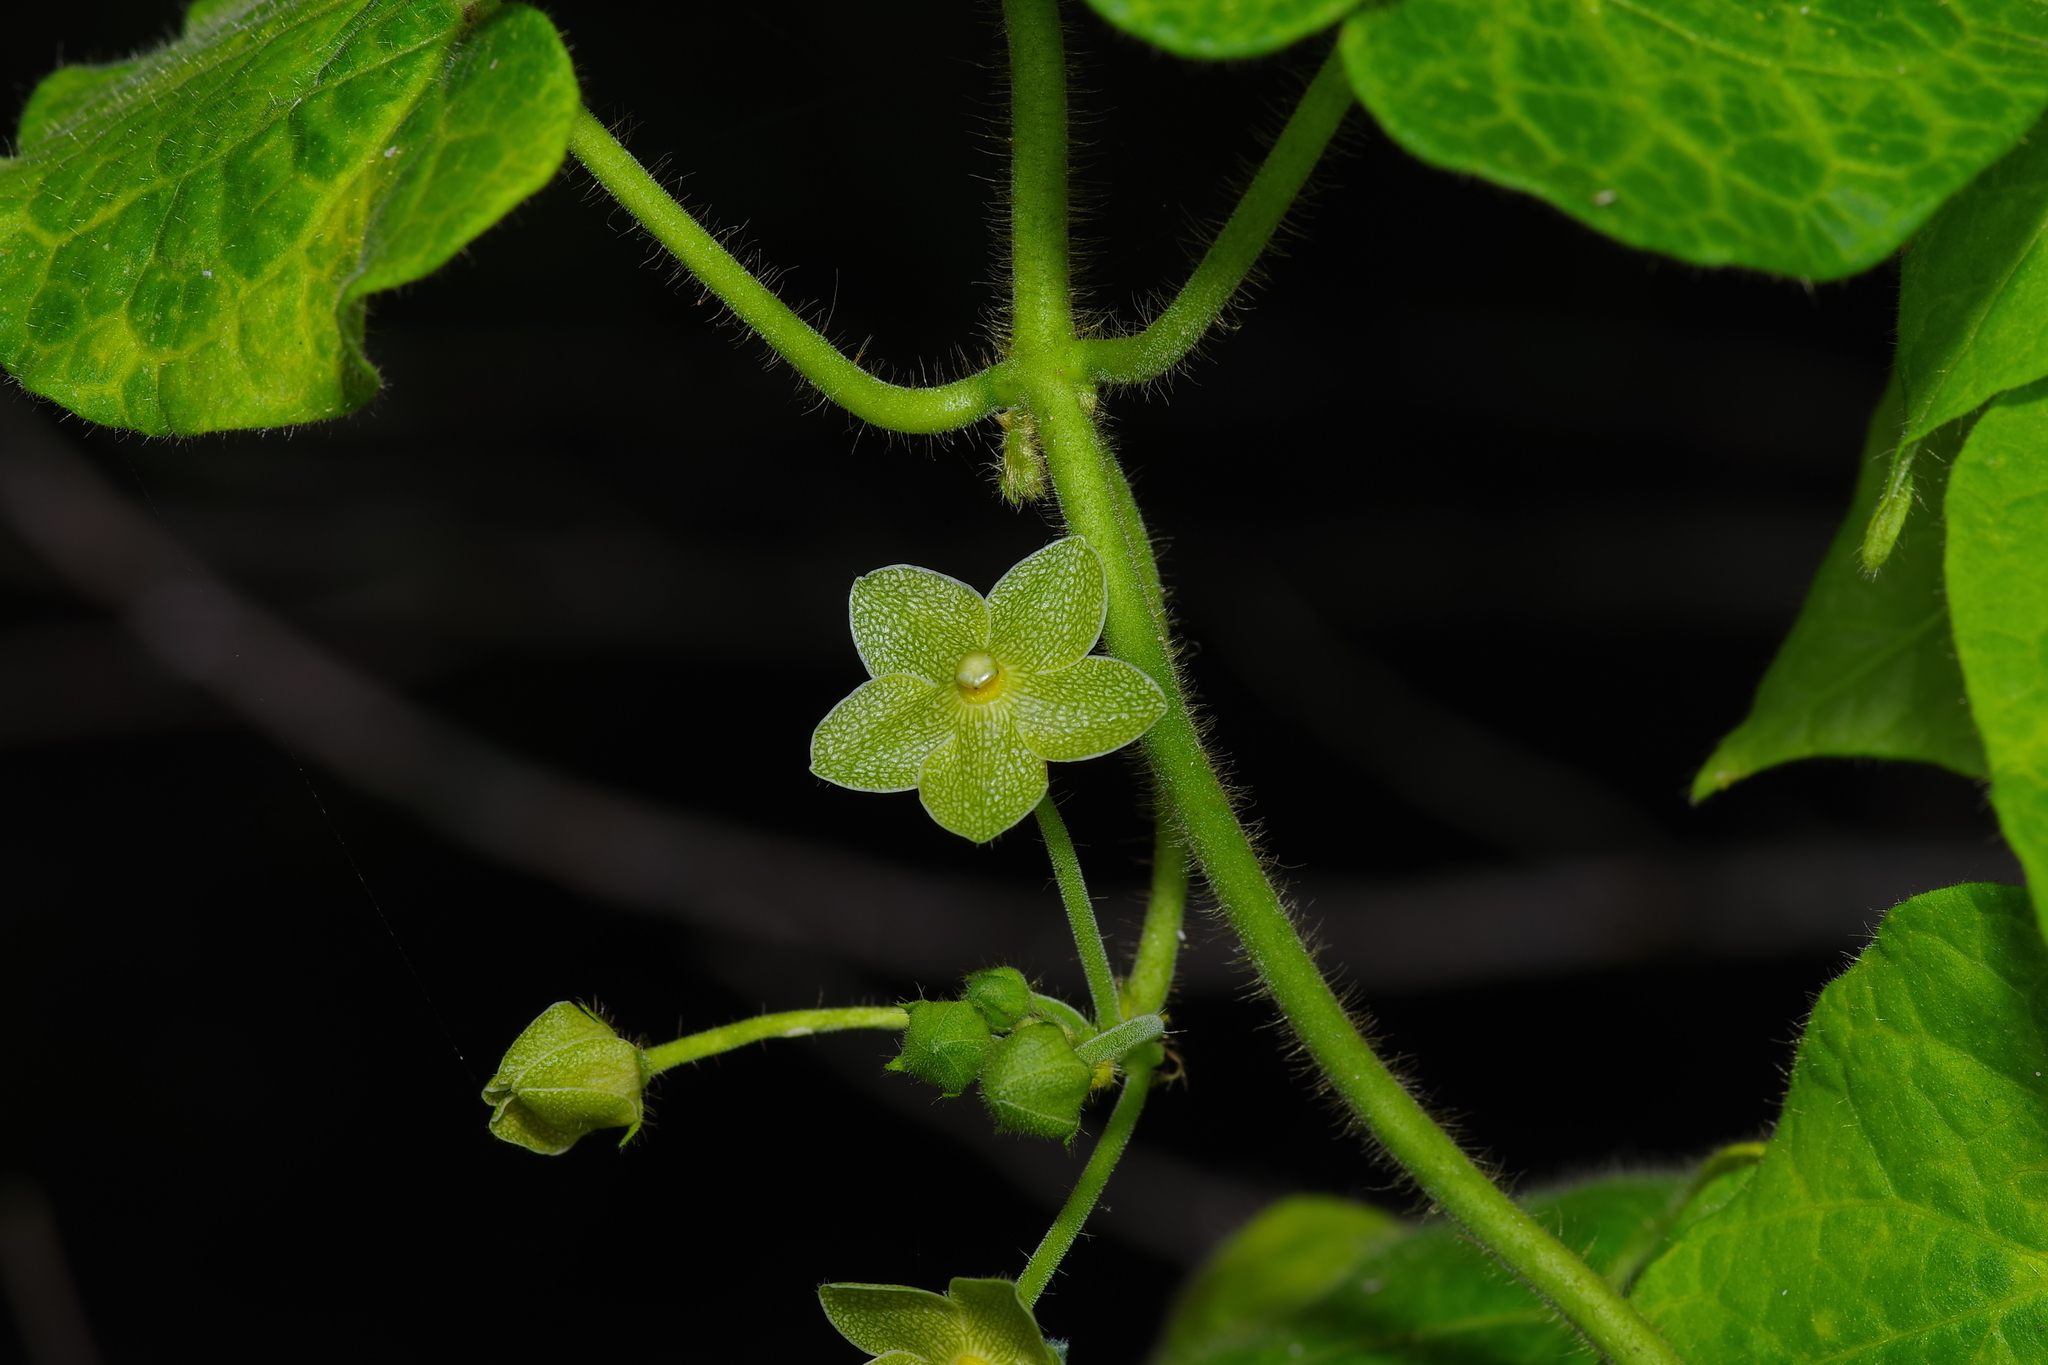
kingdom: Plantae
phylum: Tracheophyta
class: Magnoliopsida
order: Gentianales
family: Apocynaceae
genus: Dictyanthus
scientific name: Dictyanthus reticulatus
